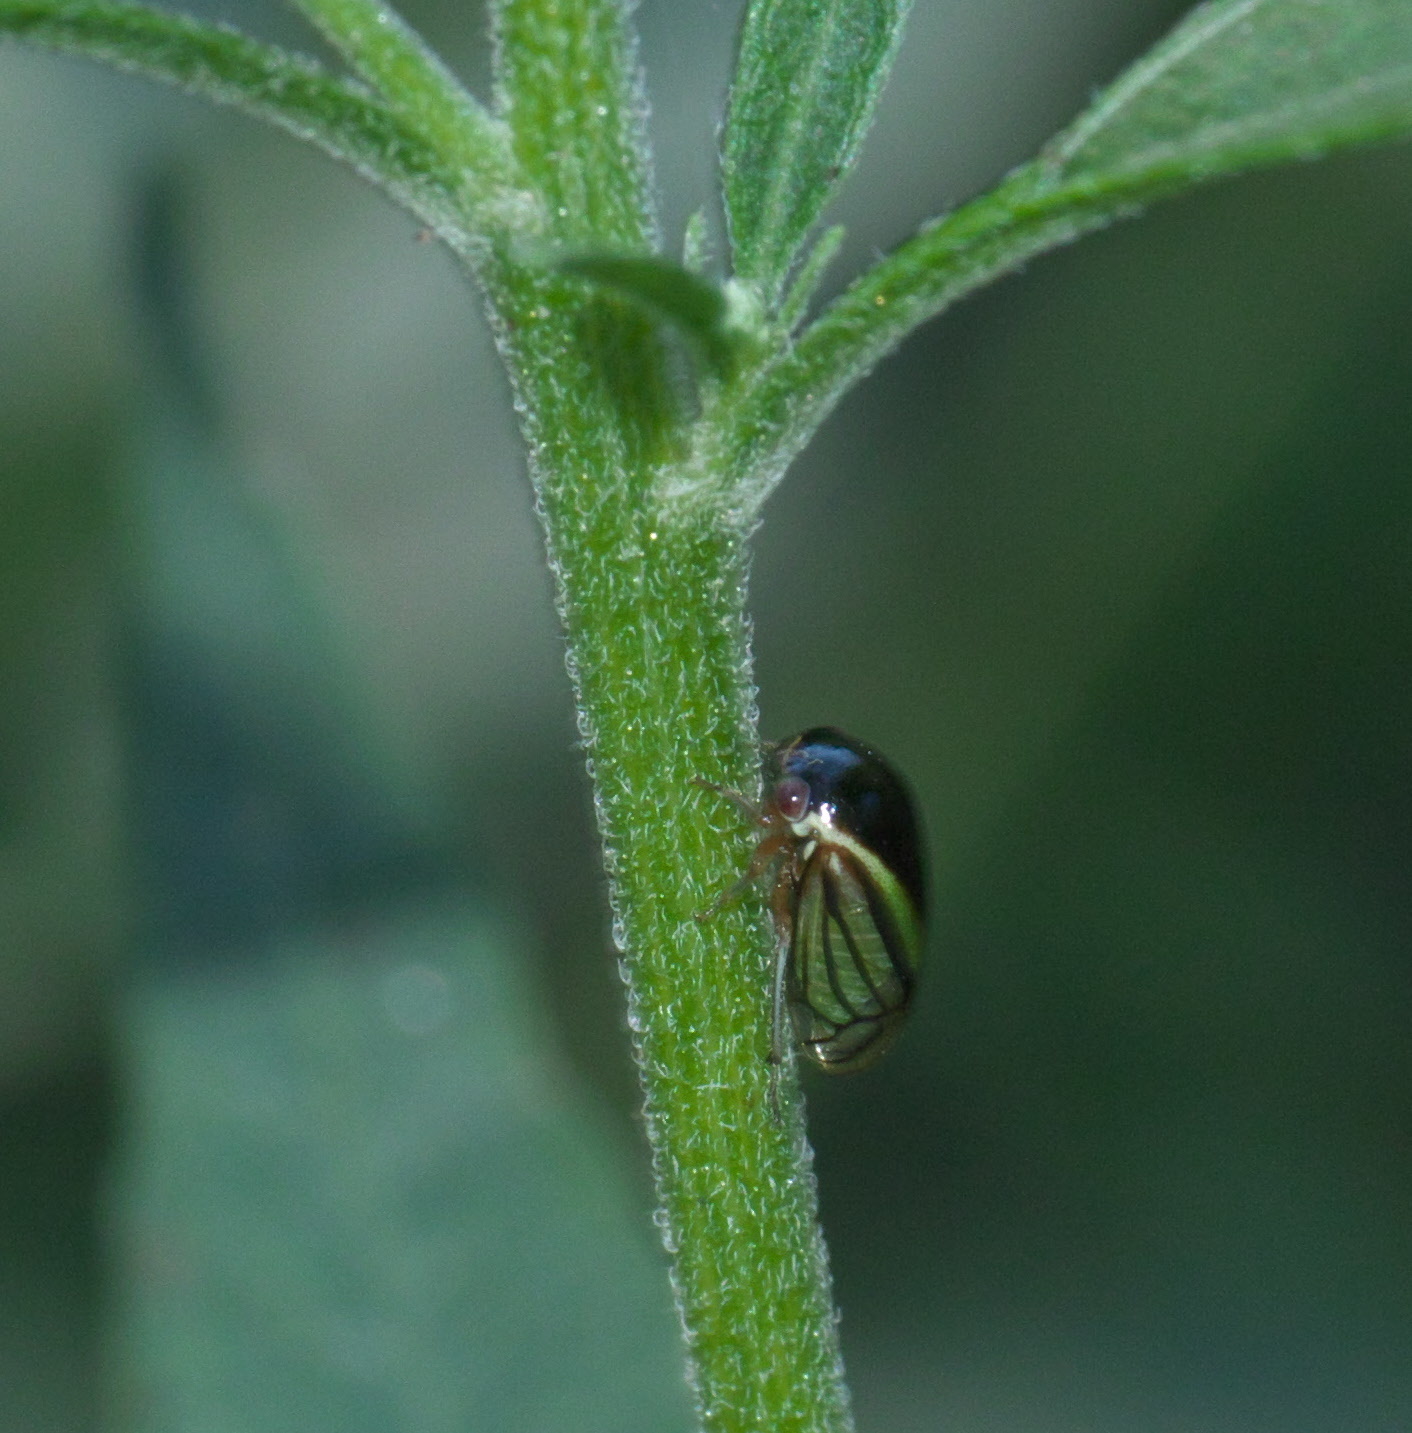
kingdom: Animalia
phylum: Arthropoda
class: Insecta
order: Hemiptera
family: Membracidae
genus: Acutalis
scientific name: Acutalis tartarea
